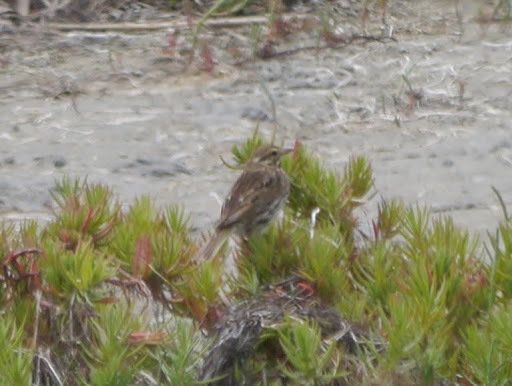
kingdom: Animalia
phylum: Chordata
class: Aves
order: Passeriformes
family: Passerellidae
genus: Passerculus
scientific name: Passerculus sandwichensis
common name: Savannah sparrow
